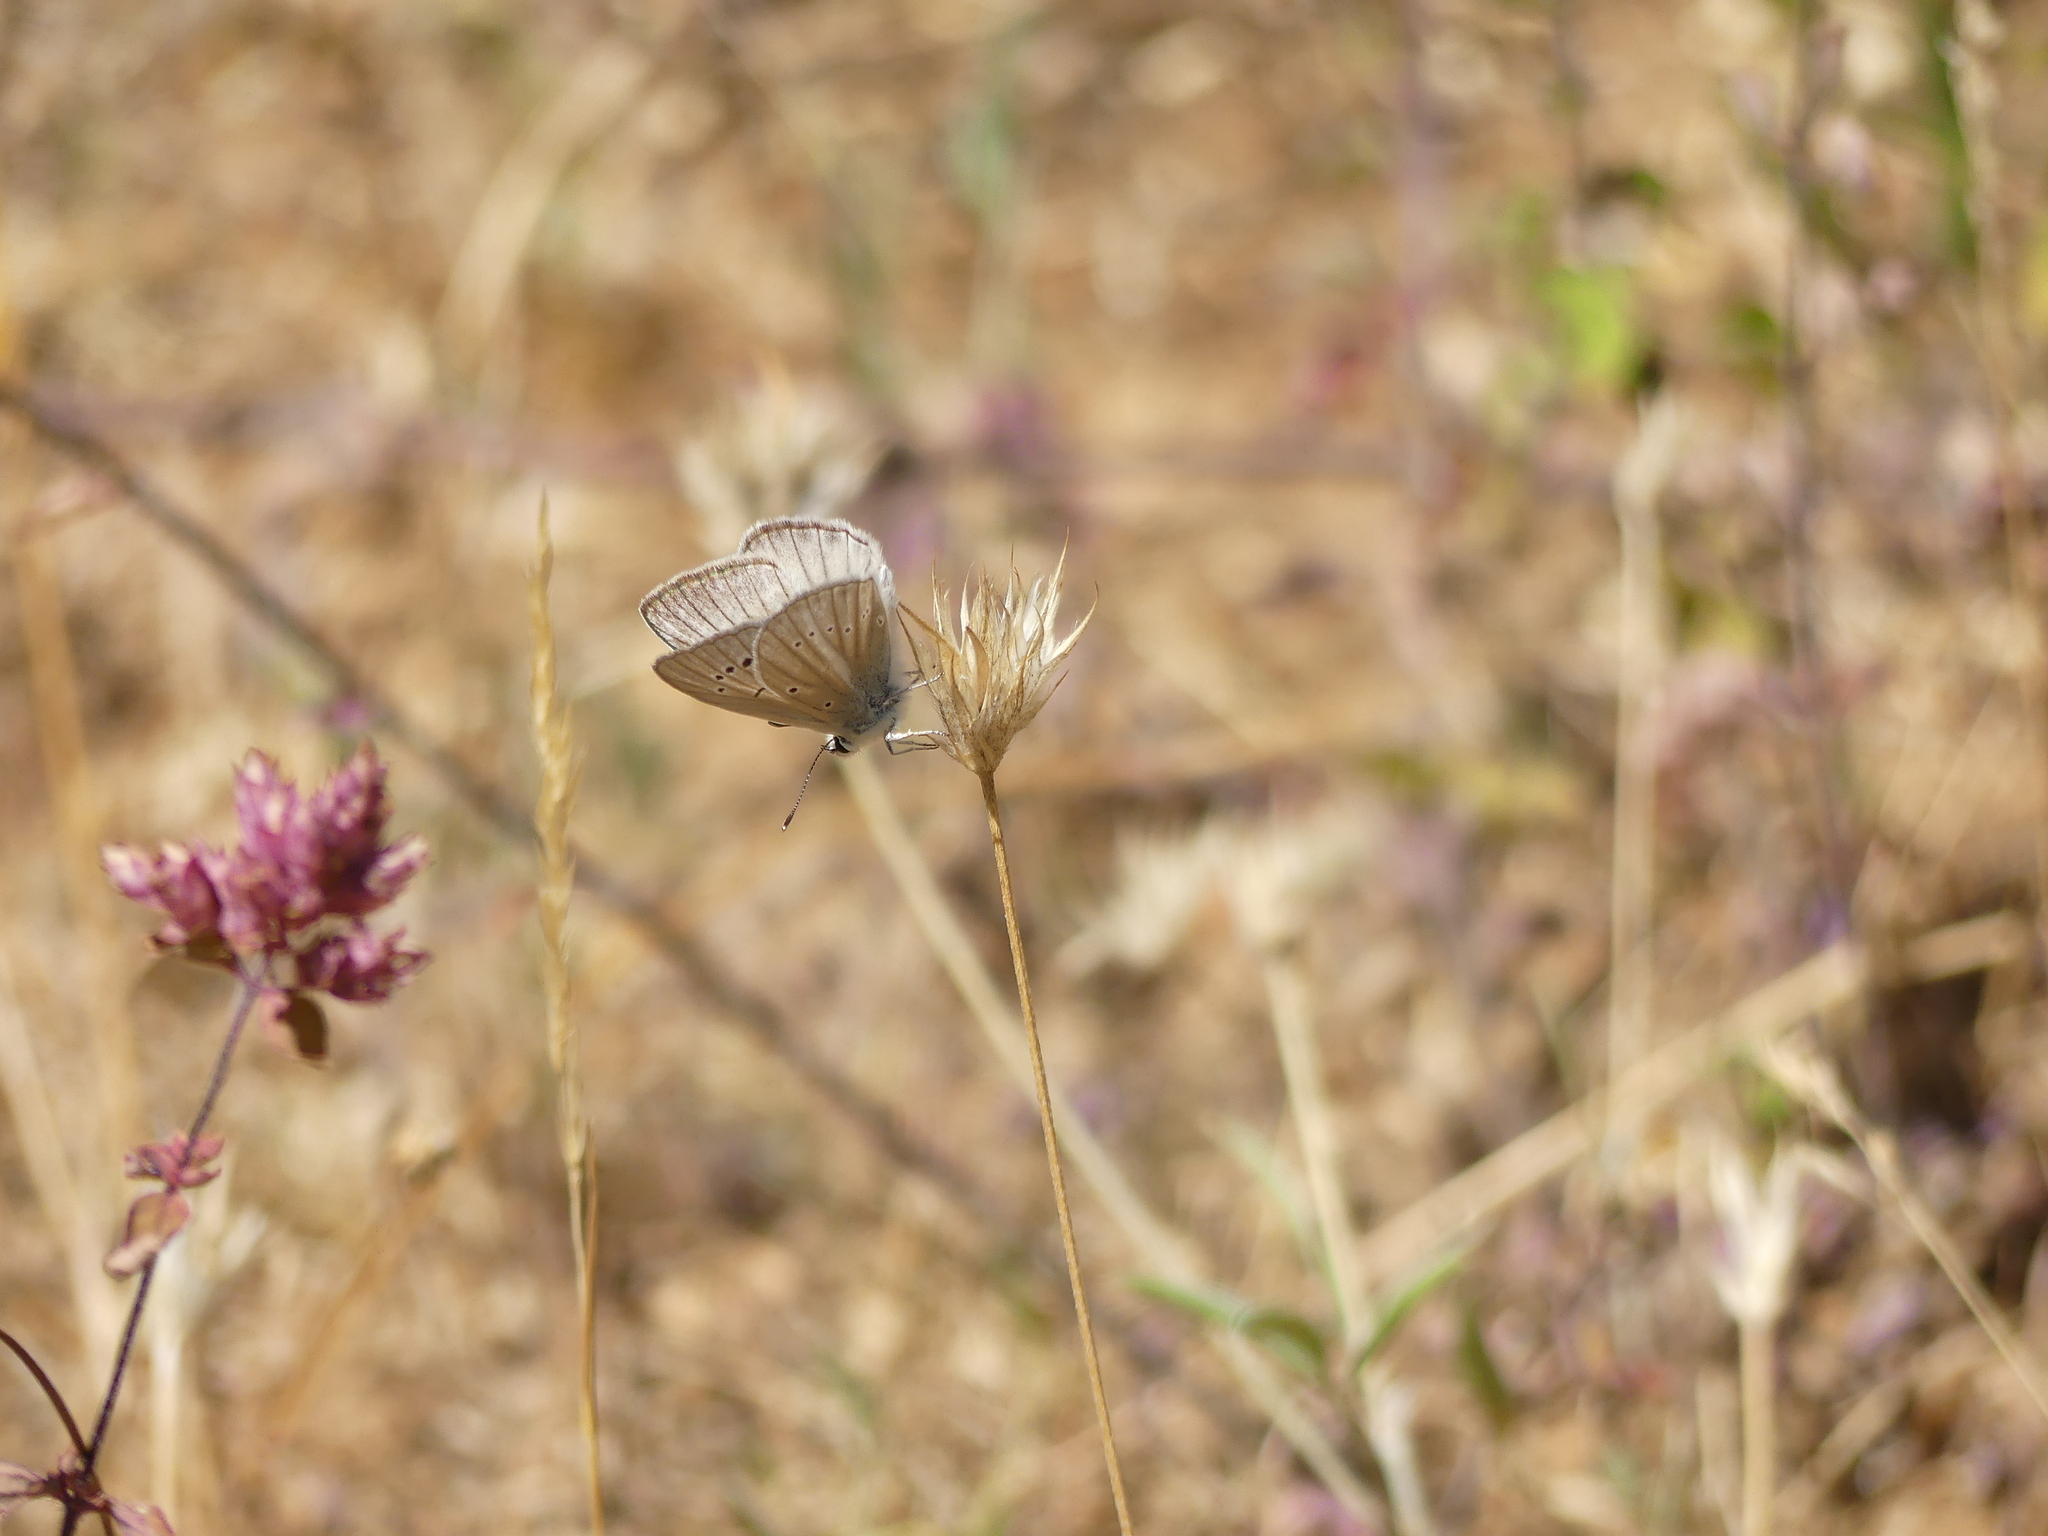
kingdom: Animalia
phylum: Arthropoda
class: Insecta
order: Lepidoptera
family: Lycaenidae
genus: Agrodiaetus
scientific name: Agrodiaetus dolus
